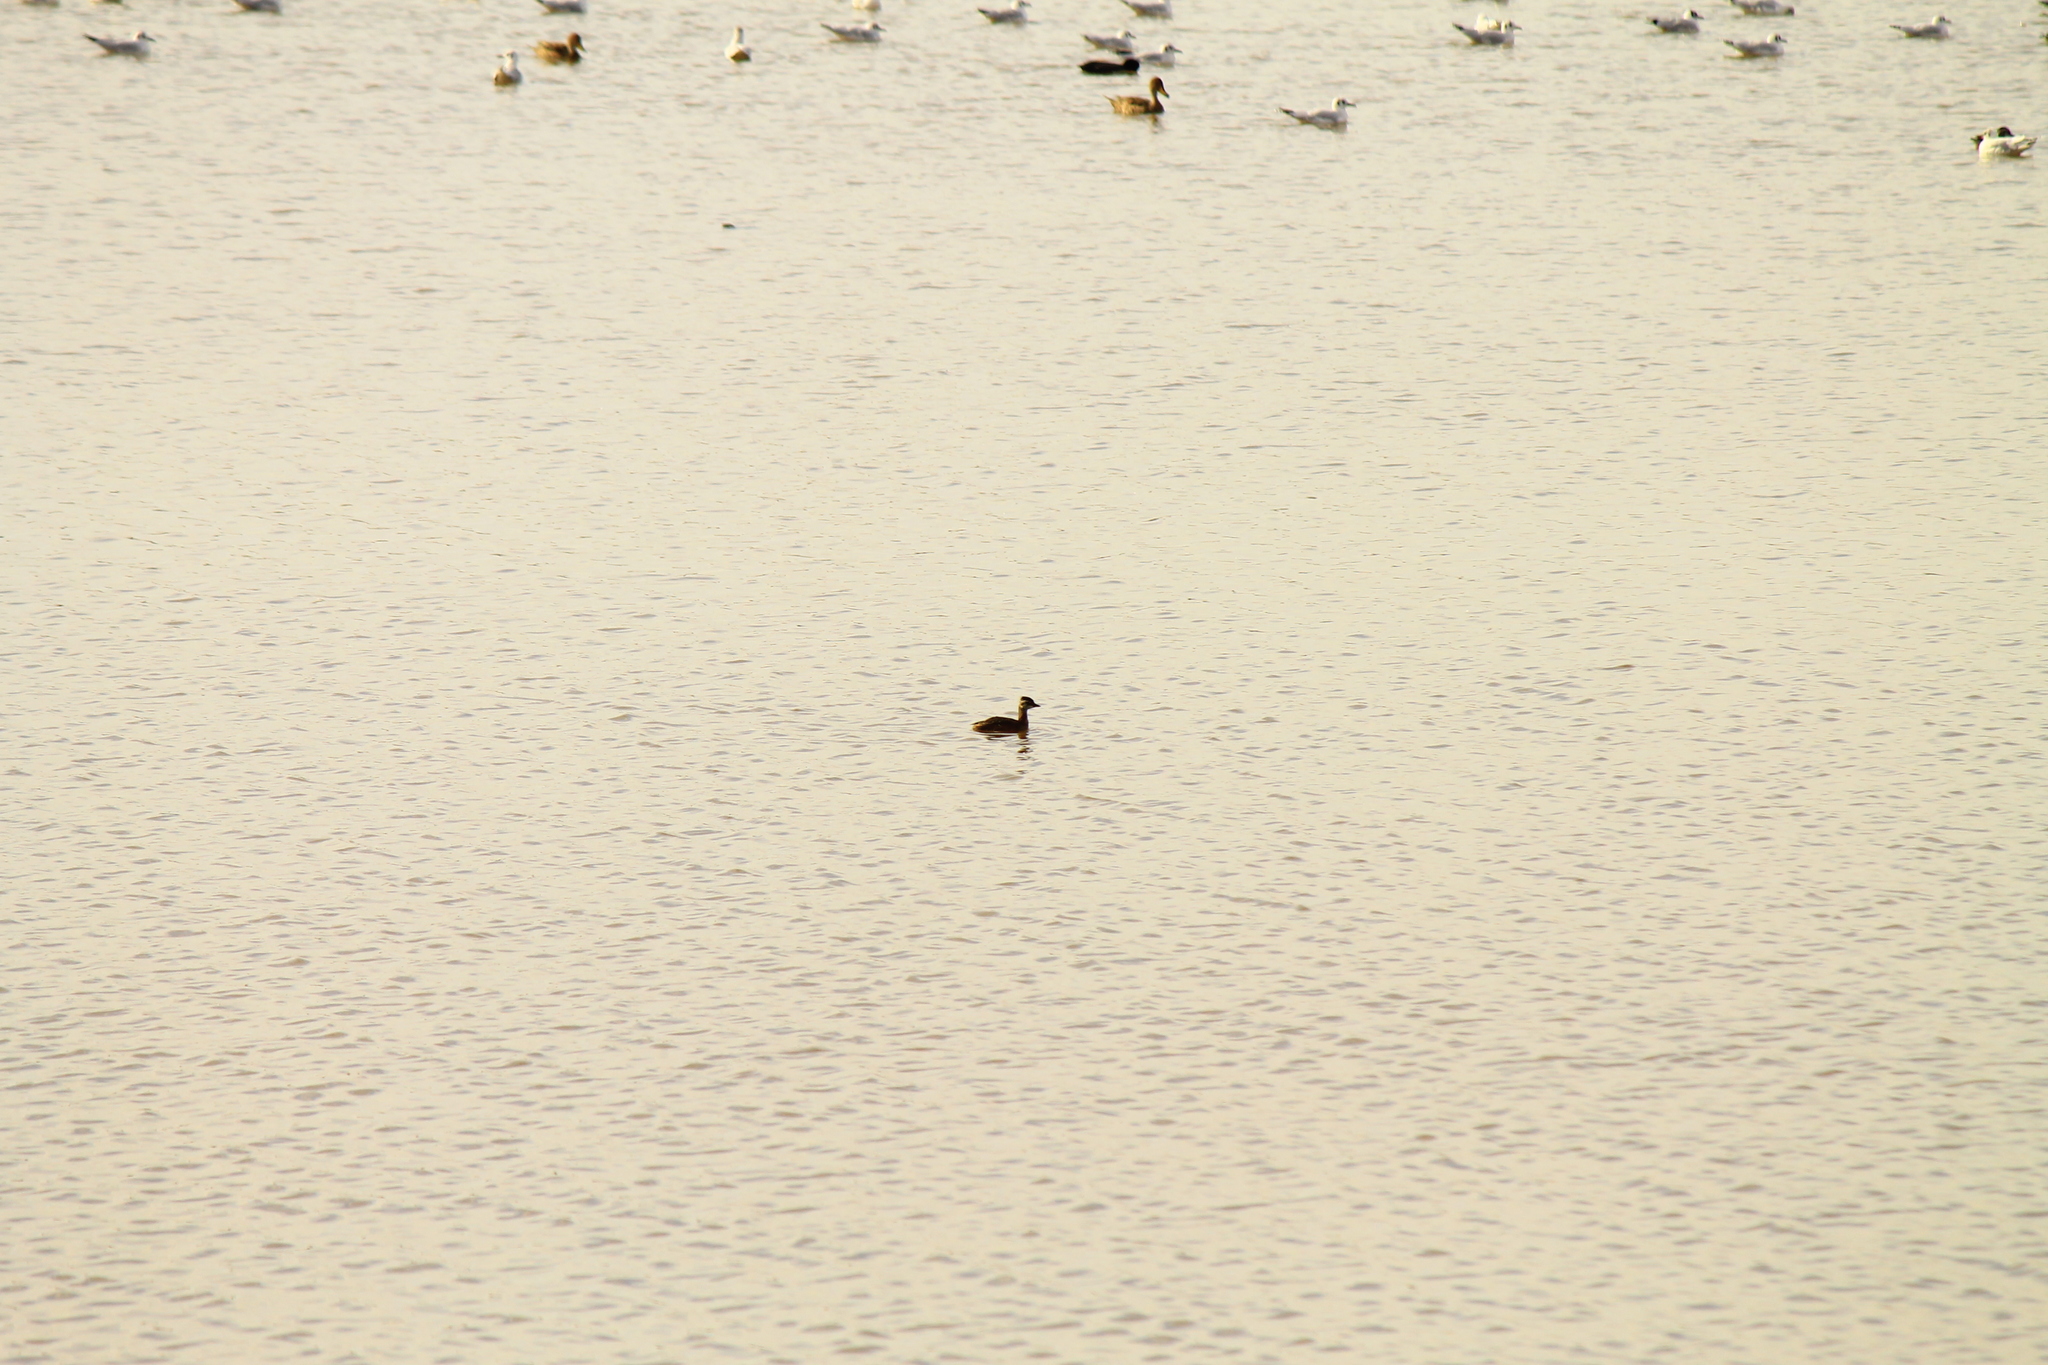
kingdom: Animalia
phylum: Chordata
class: Aves
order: Podicipediformes
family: Podicipedidae
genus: Rollandia
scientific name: Rollandia rolland
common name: White-tufted grebe
